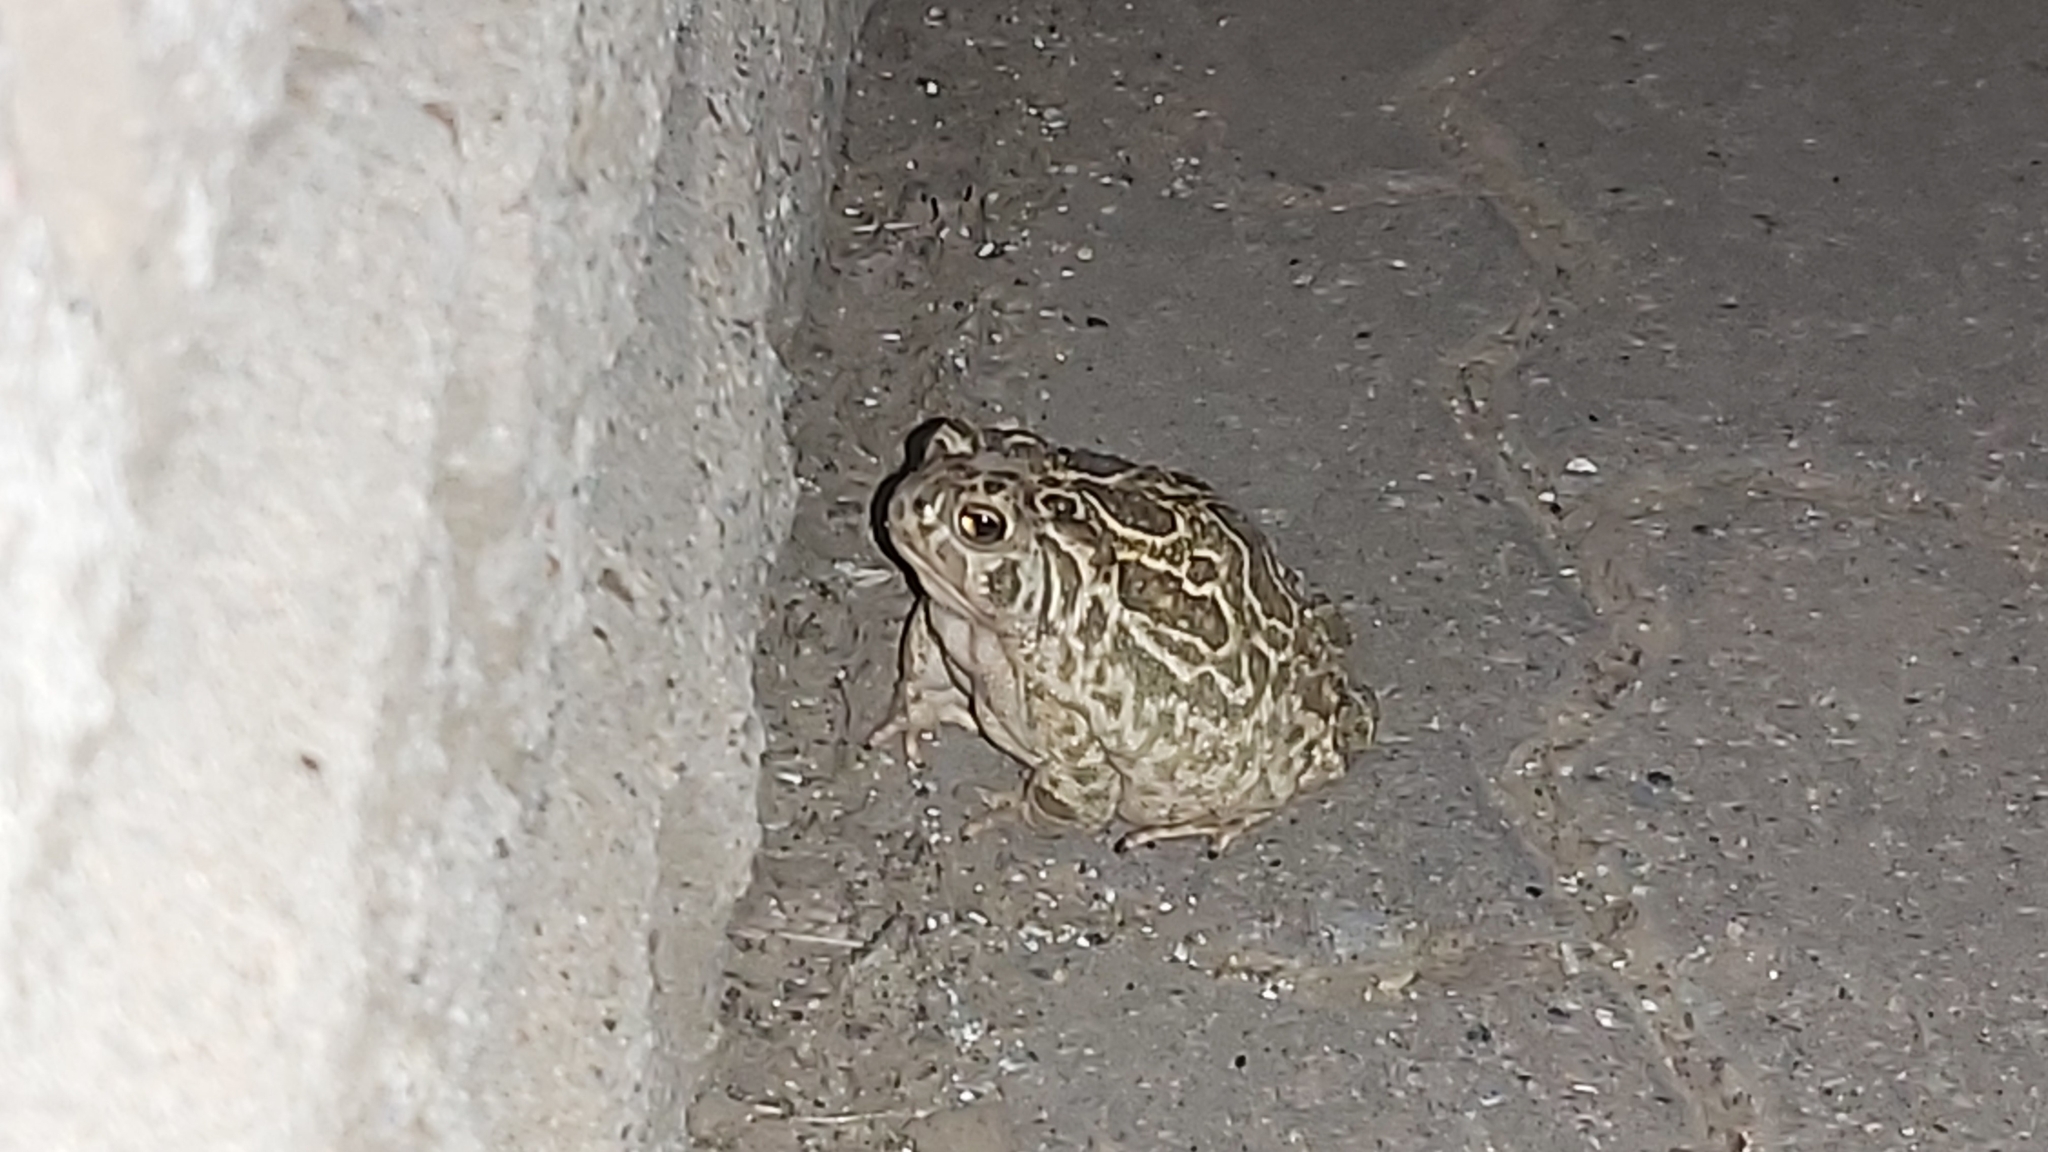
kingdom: Animalia
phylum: Chordata
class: Amphibia
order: Anura
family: Bufonidae
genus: Anaxyrus
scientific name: Anaxyrus cognatus
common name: Great plains toad
